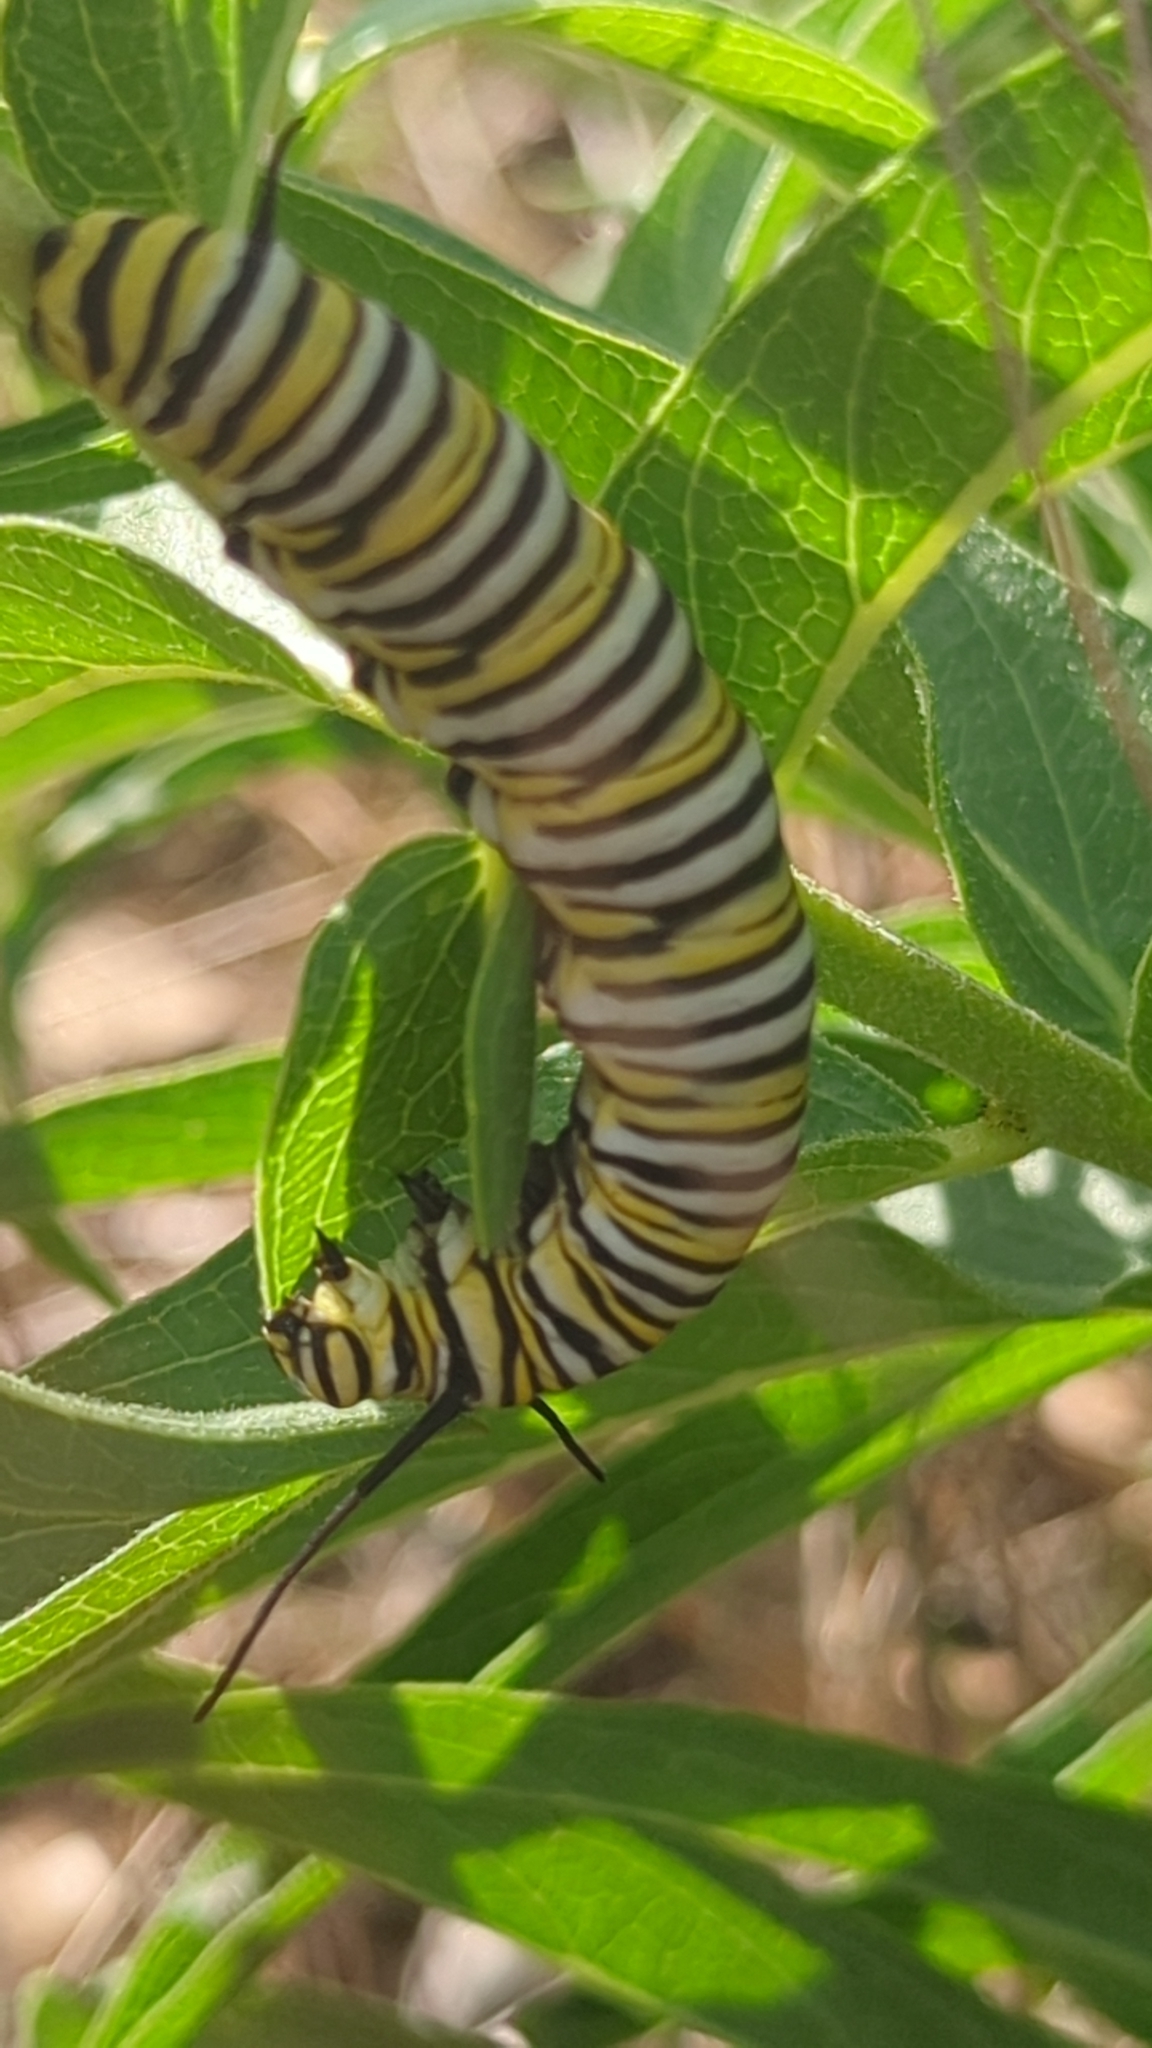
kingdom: Animalia
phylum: Arthropoda
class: Insecta
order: Lepidoptera
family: Nymphalidae
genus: Danaus
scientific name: Danaus plexippus
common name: Monarch
